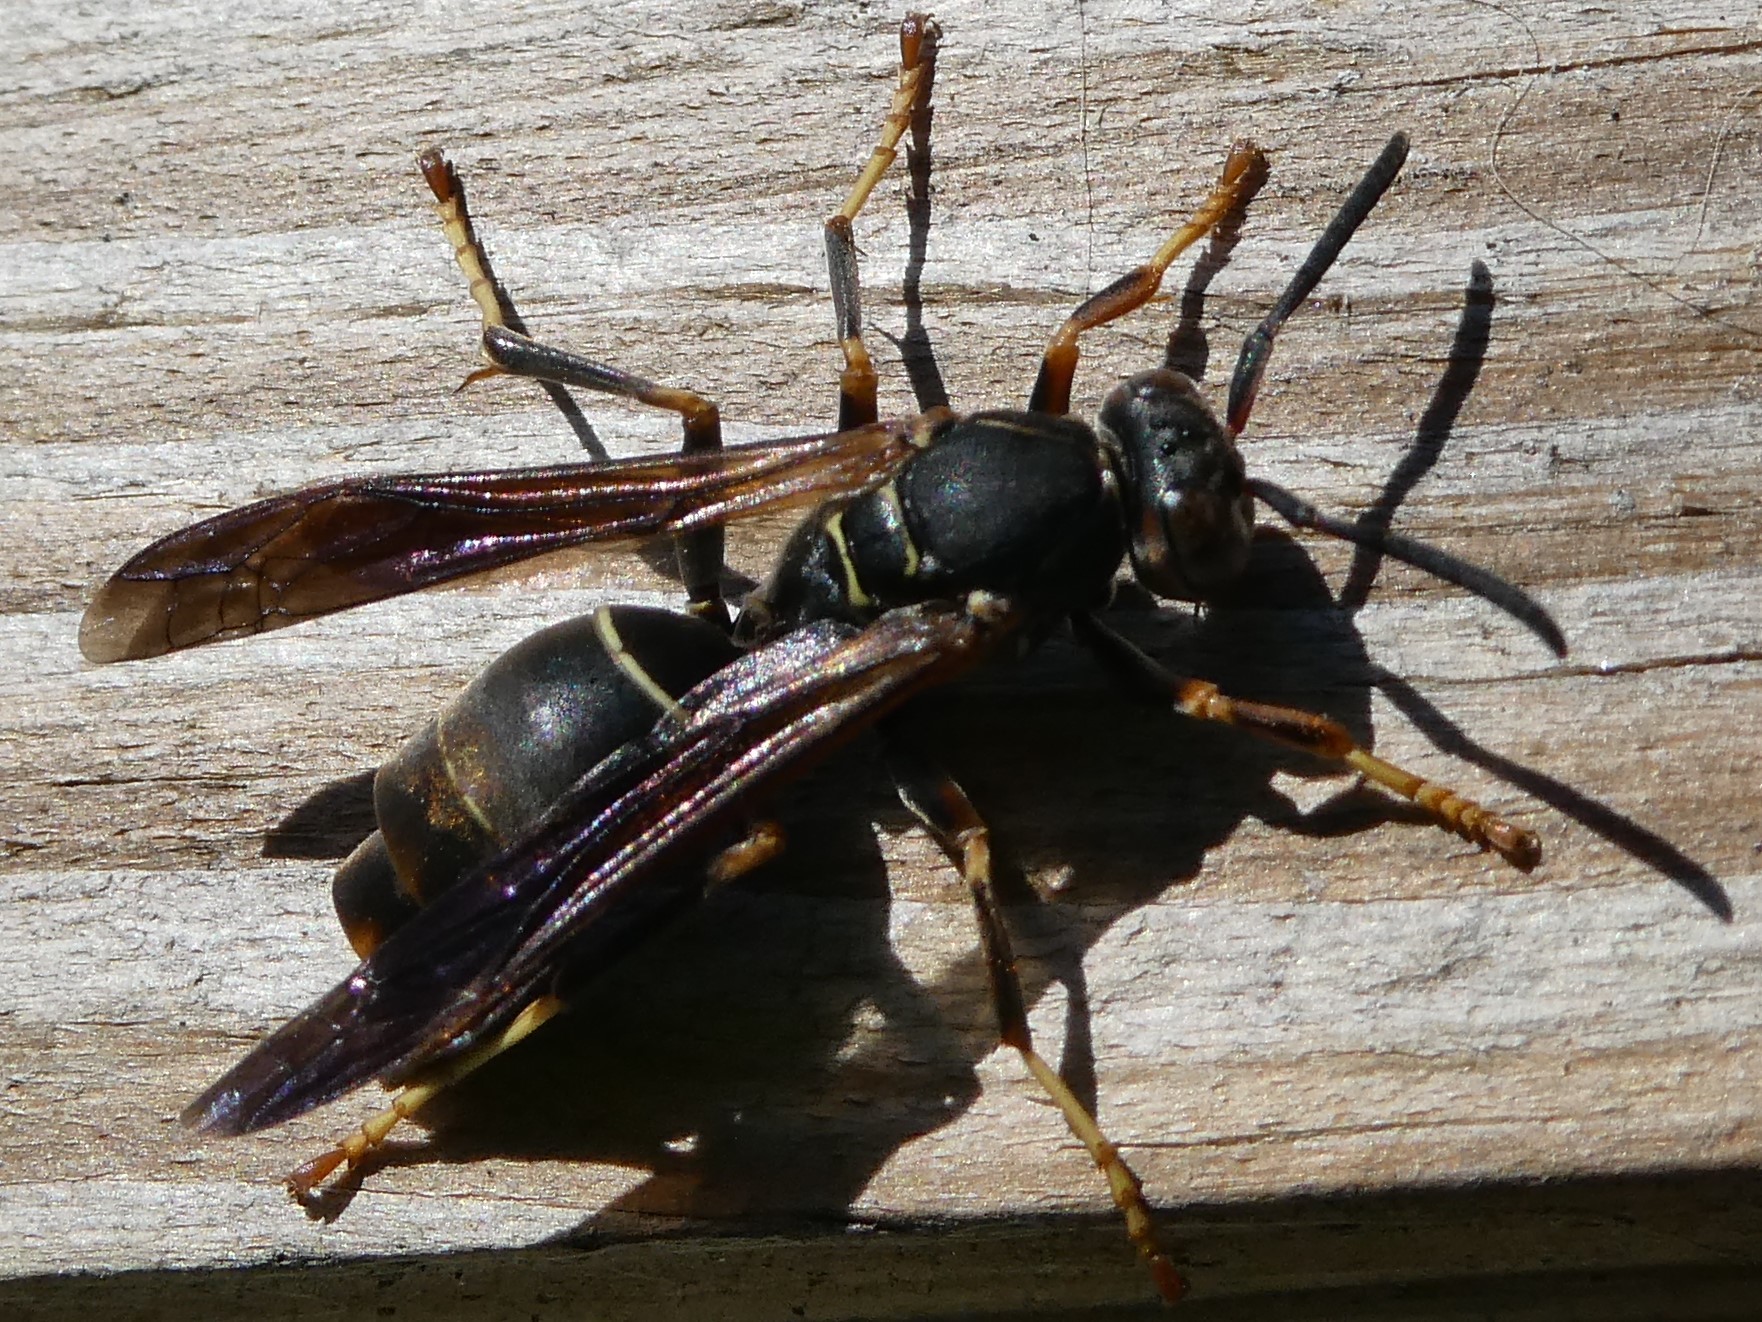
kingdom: Animalia
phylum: Arthropoda
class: Insecta
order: Strepsiptera
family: Xenidae
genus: Xenos
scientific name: Xenos pecki
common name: Twisted wing parasite
